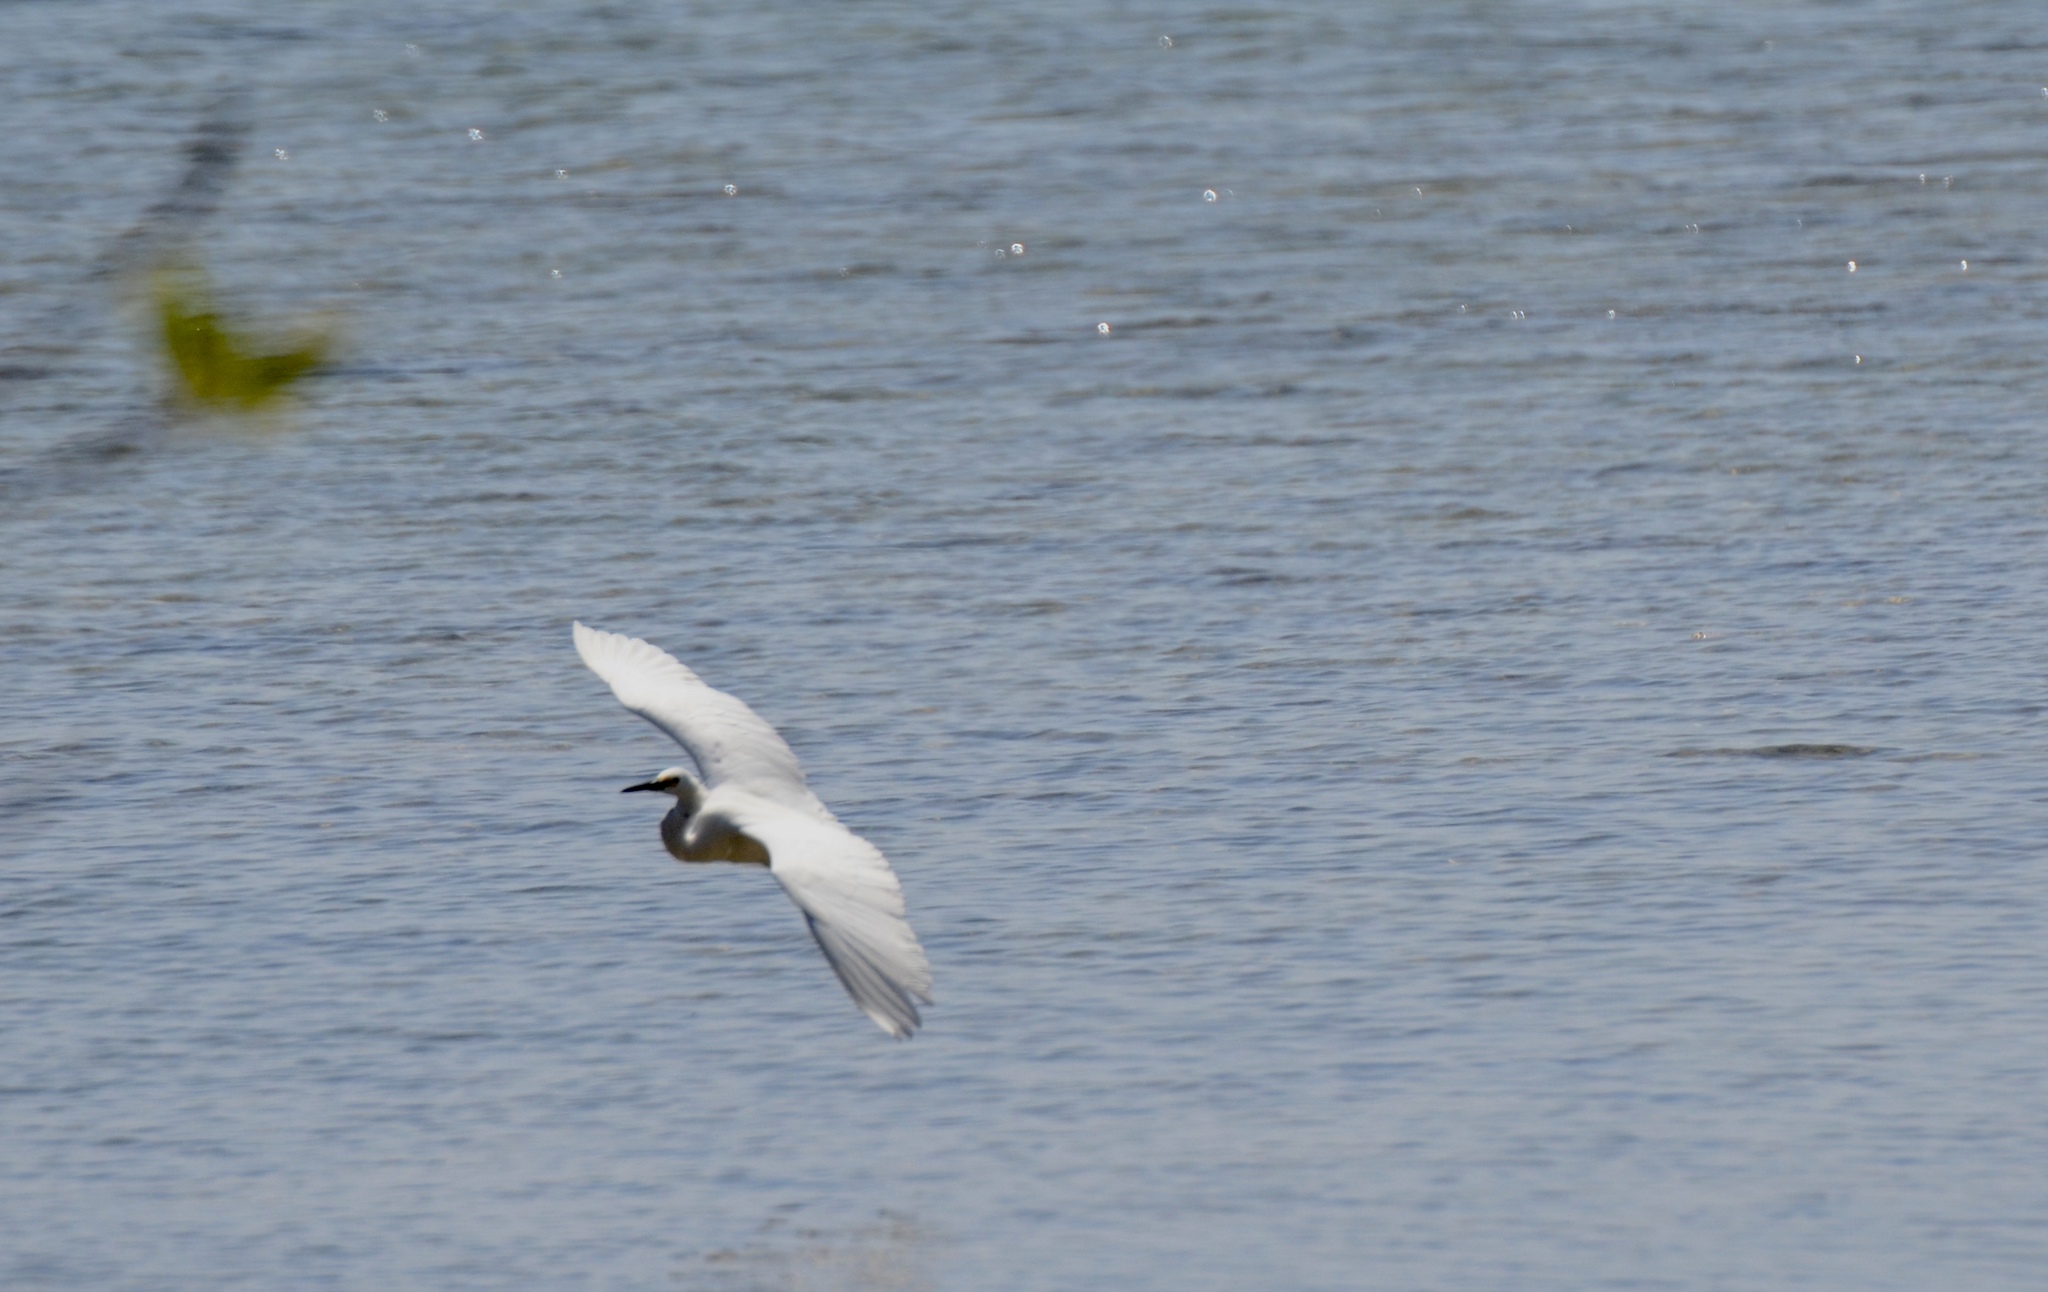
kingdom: Animalia
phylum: Chordata
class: Aves
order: Pelecaniformes
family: Ardeidae
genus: Egretta
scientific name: Egretta garzetta
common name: Little egret
